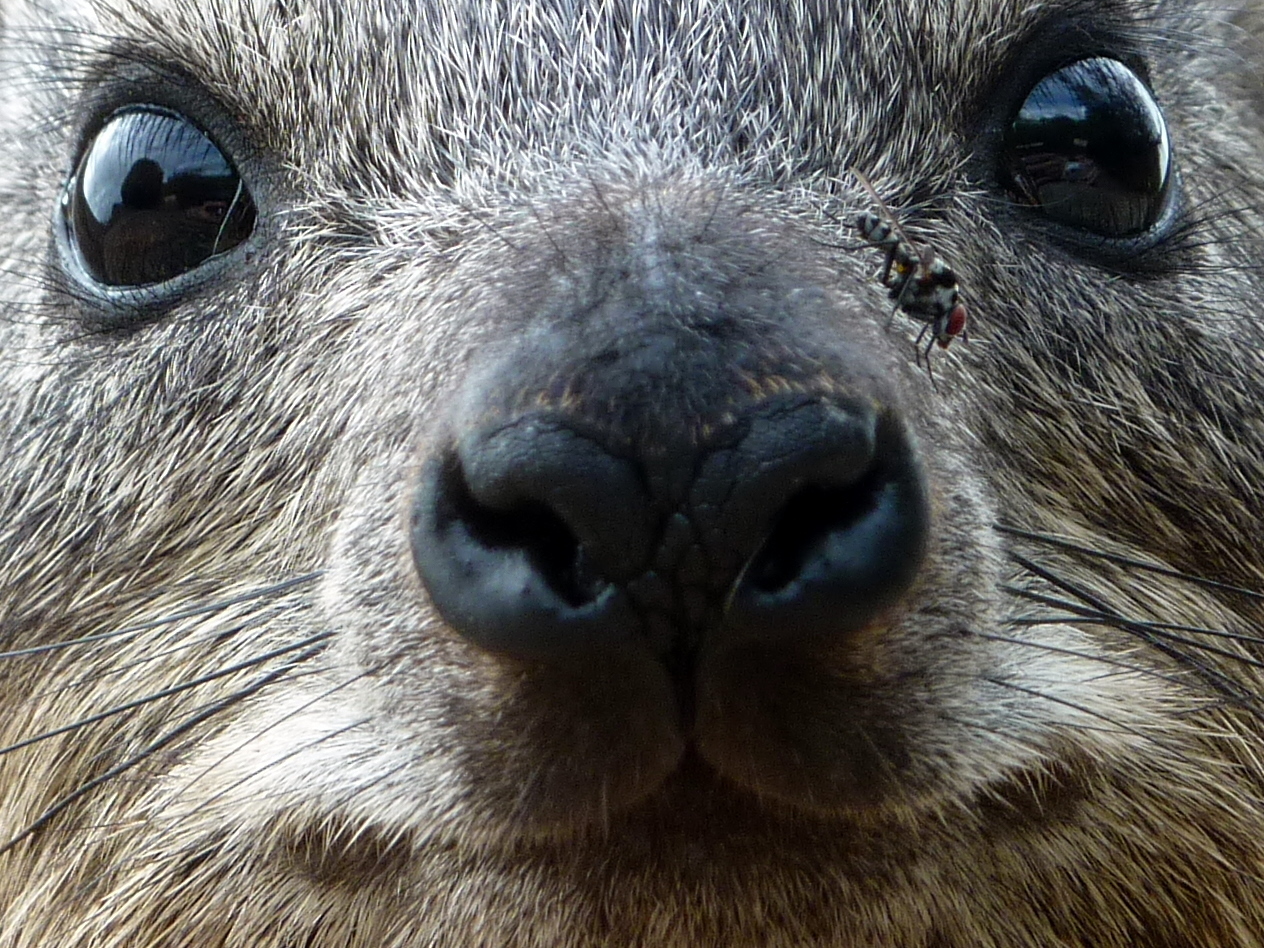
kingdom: Animalia
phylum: Chordata
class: Mammalia
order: Hyracoidea
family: Procaviidae
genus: Procavia
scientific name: Procavia capensis
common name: Rock hyrax
